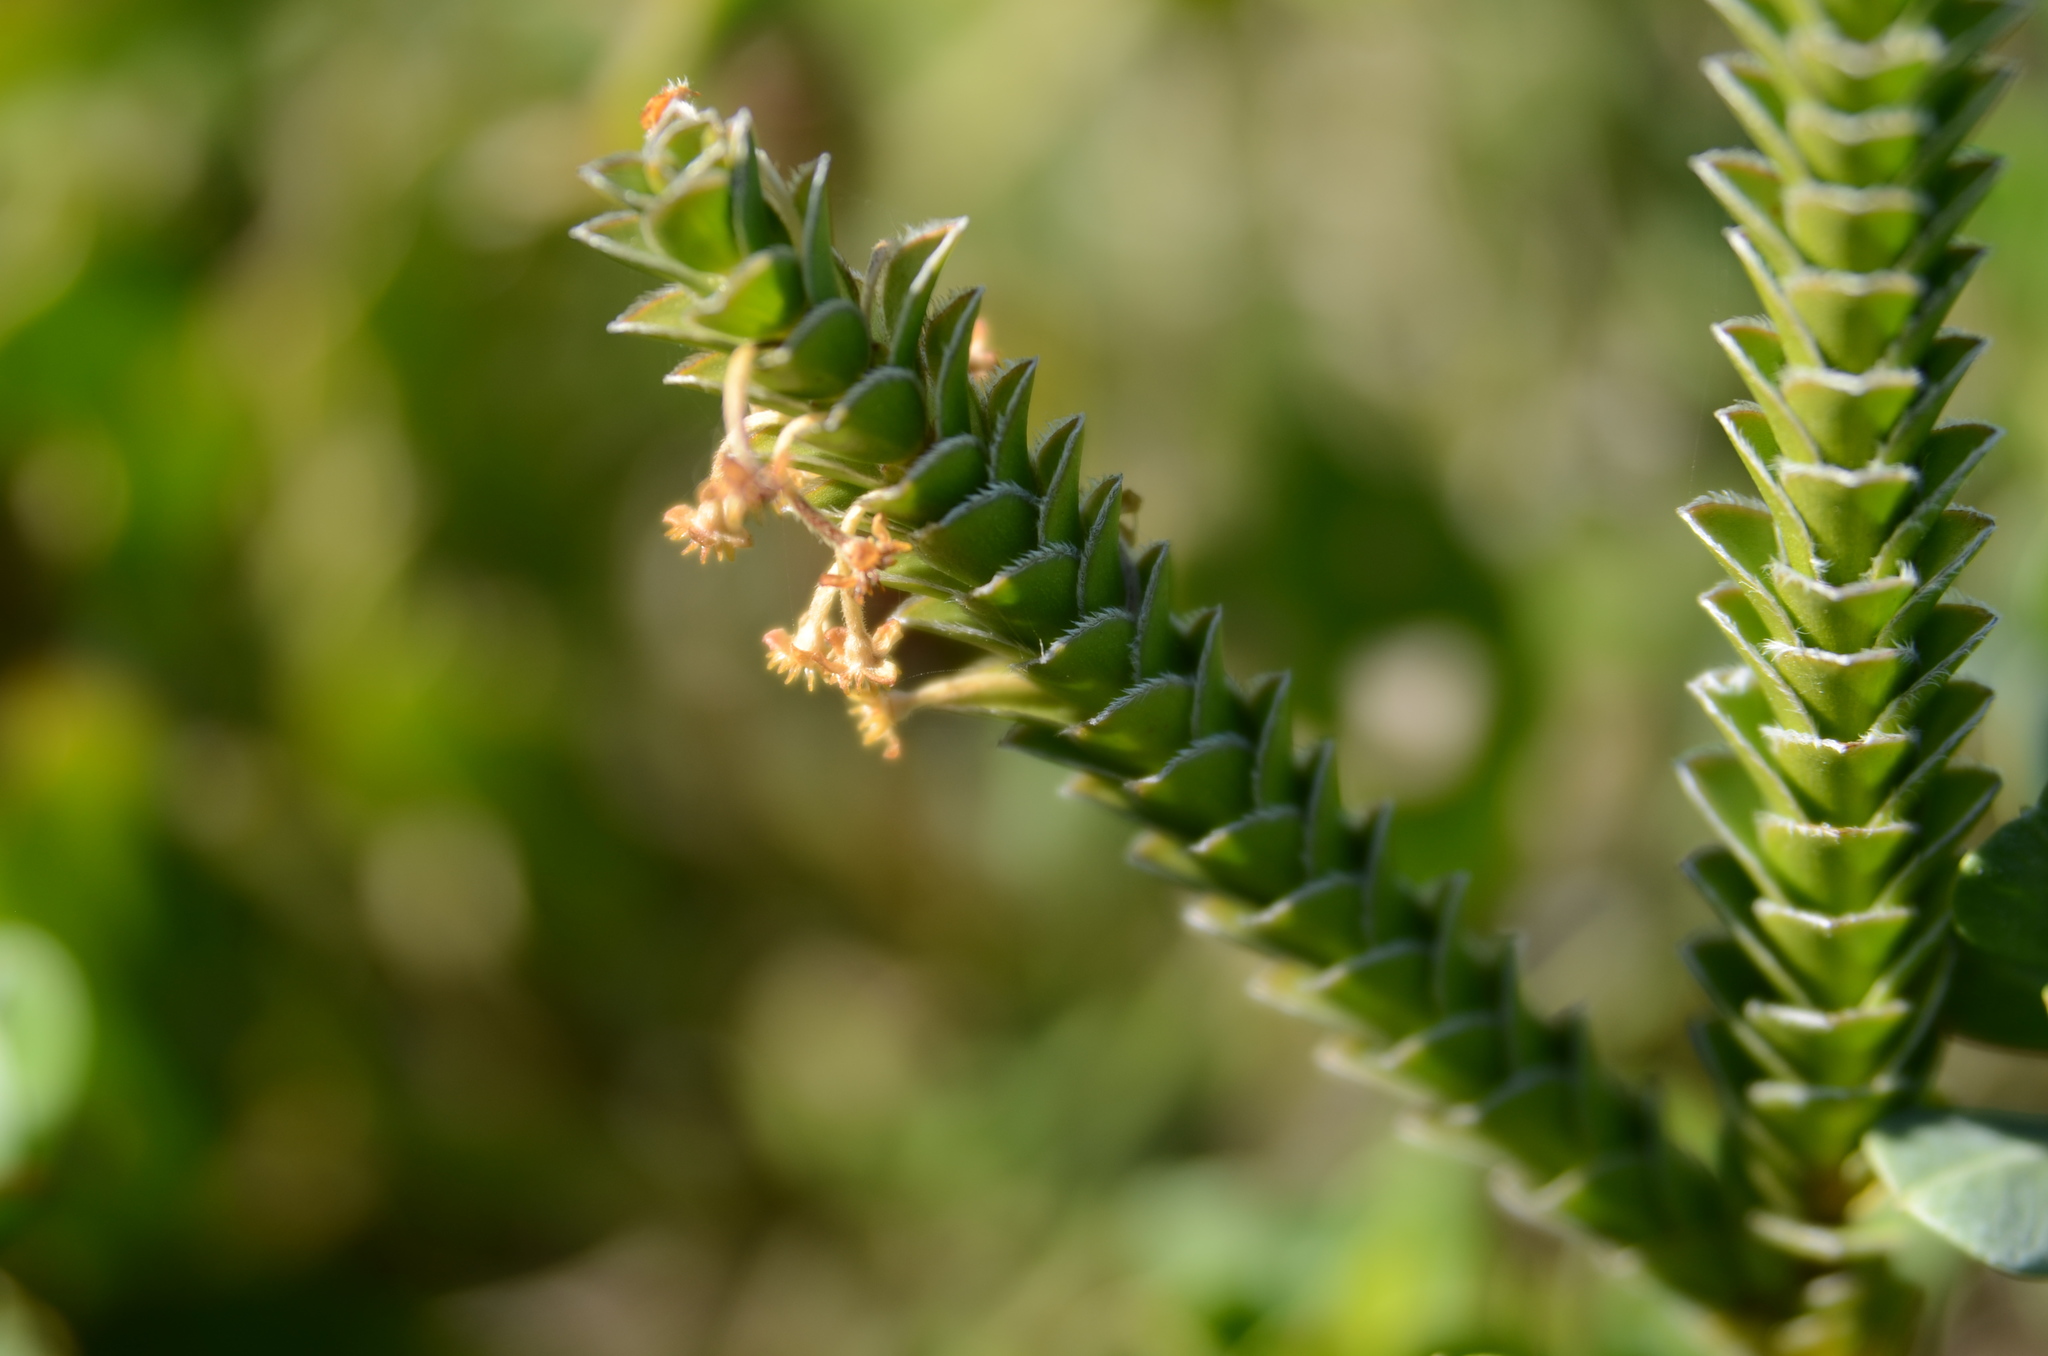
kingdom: Plantae
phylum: Tracheophyta
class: Magnoliopsida
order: Malvales
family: Thymelaeaceae
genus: Struthiola
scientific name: Struthiola argentea
